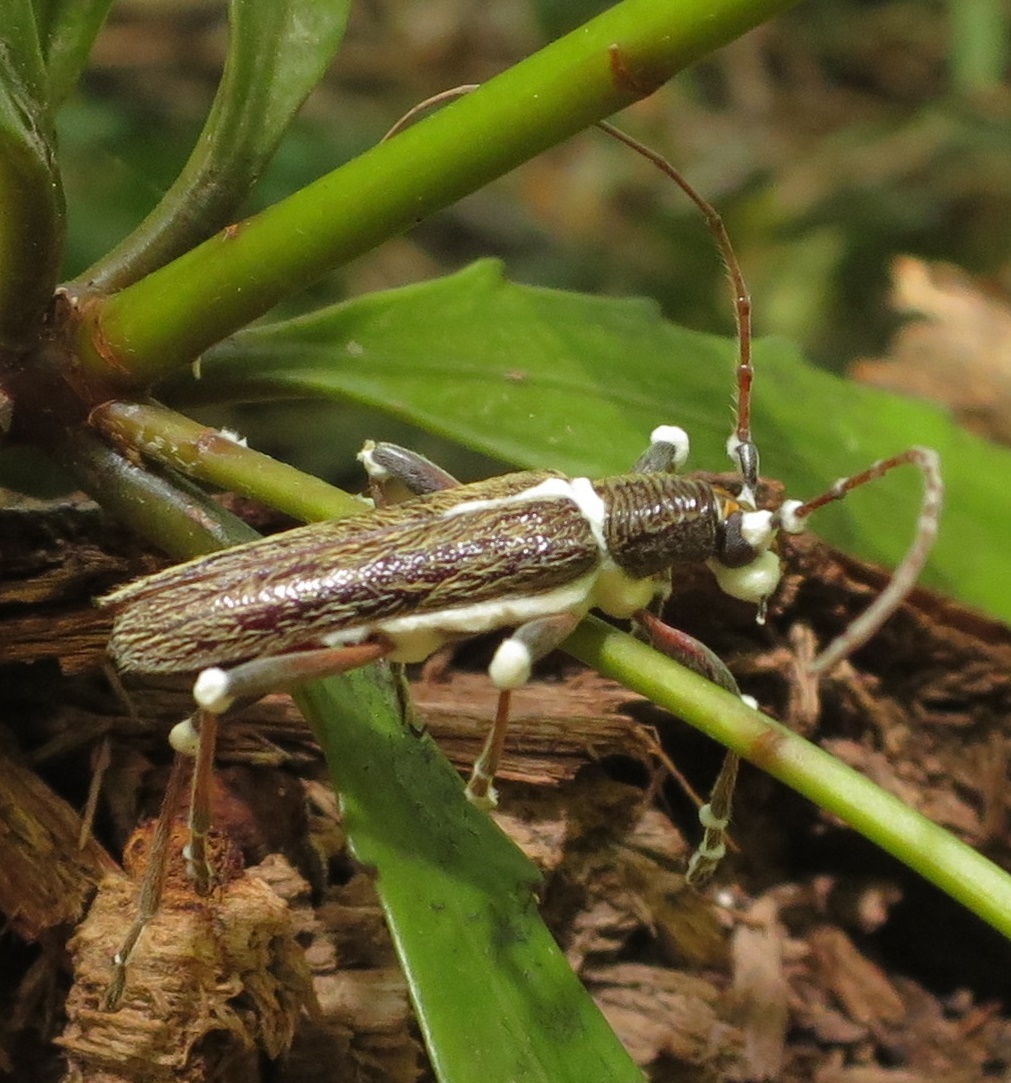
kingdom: Fungi
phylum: Ascomycota
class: Sordariomycetes
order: Hypocreales
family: Cordycipitaceae
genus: Beauveria
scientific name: Beauveria bassiana
